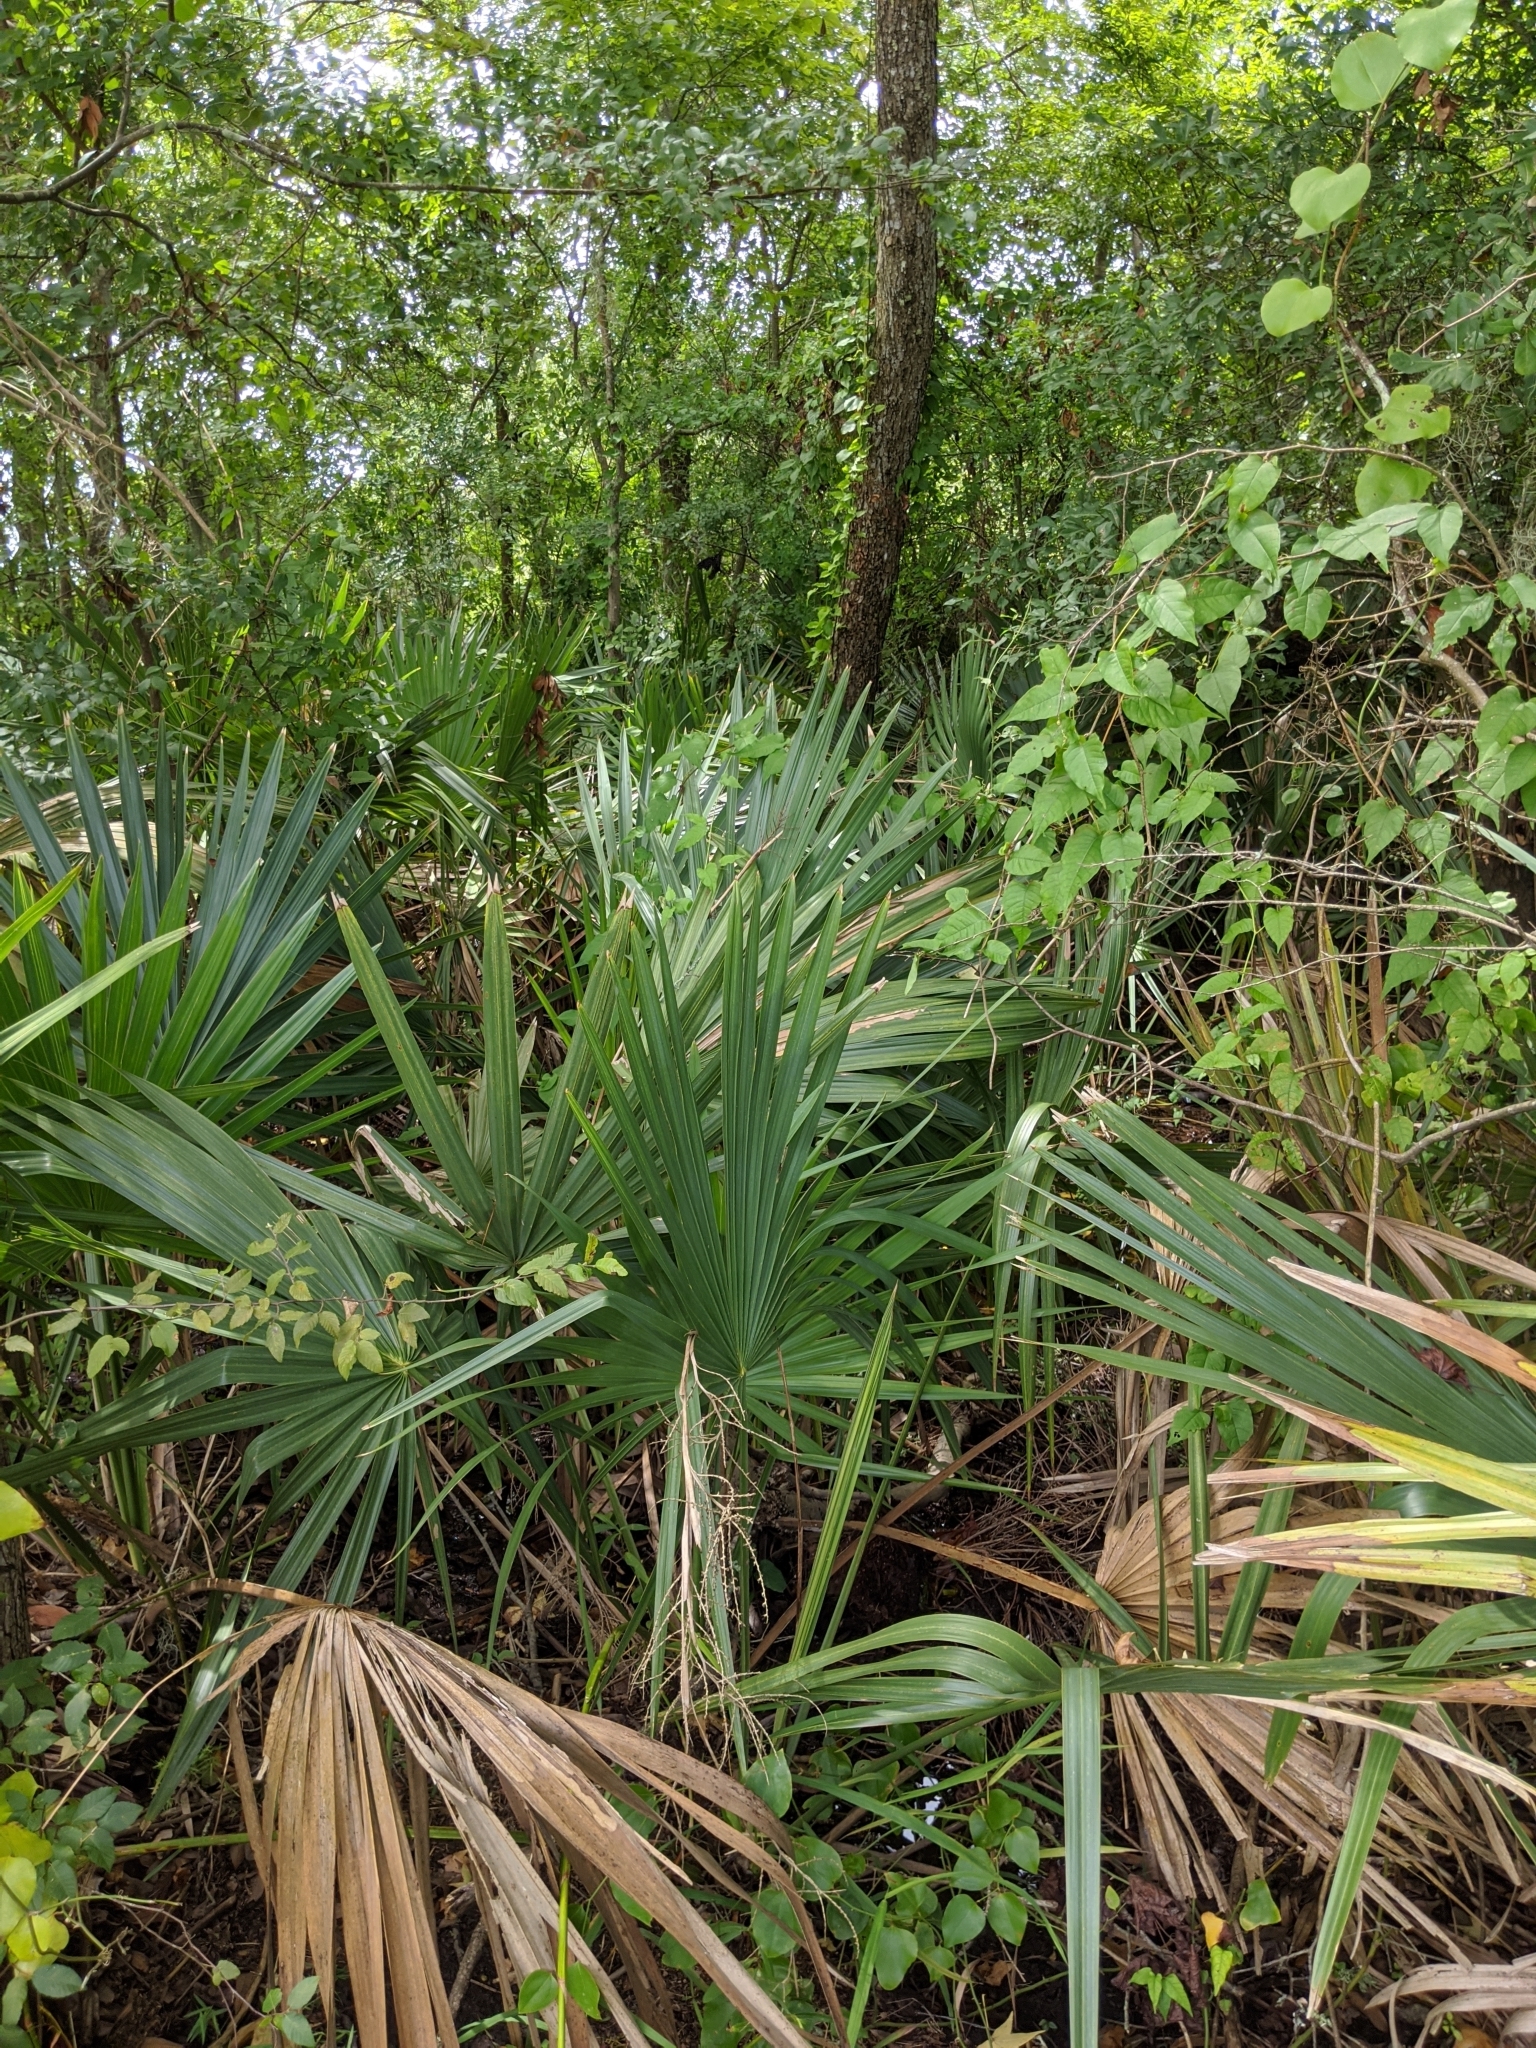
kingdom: Plantae
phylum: Tracheophyta
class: Liliopsida
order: Arecales
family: Arecaceae
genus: Sabal
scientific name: Sabal minor
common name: Dwarf palmetto
